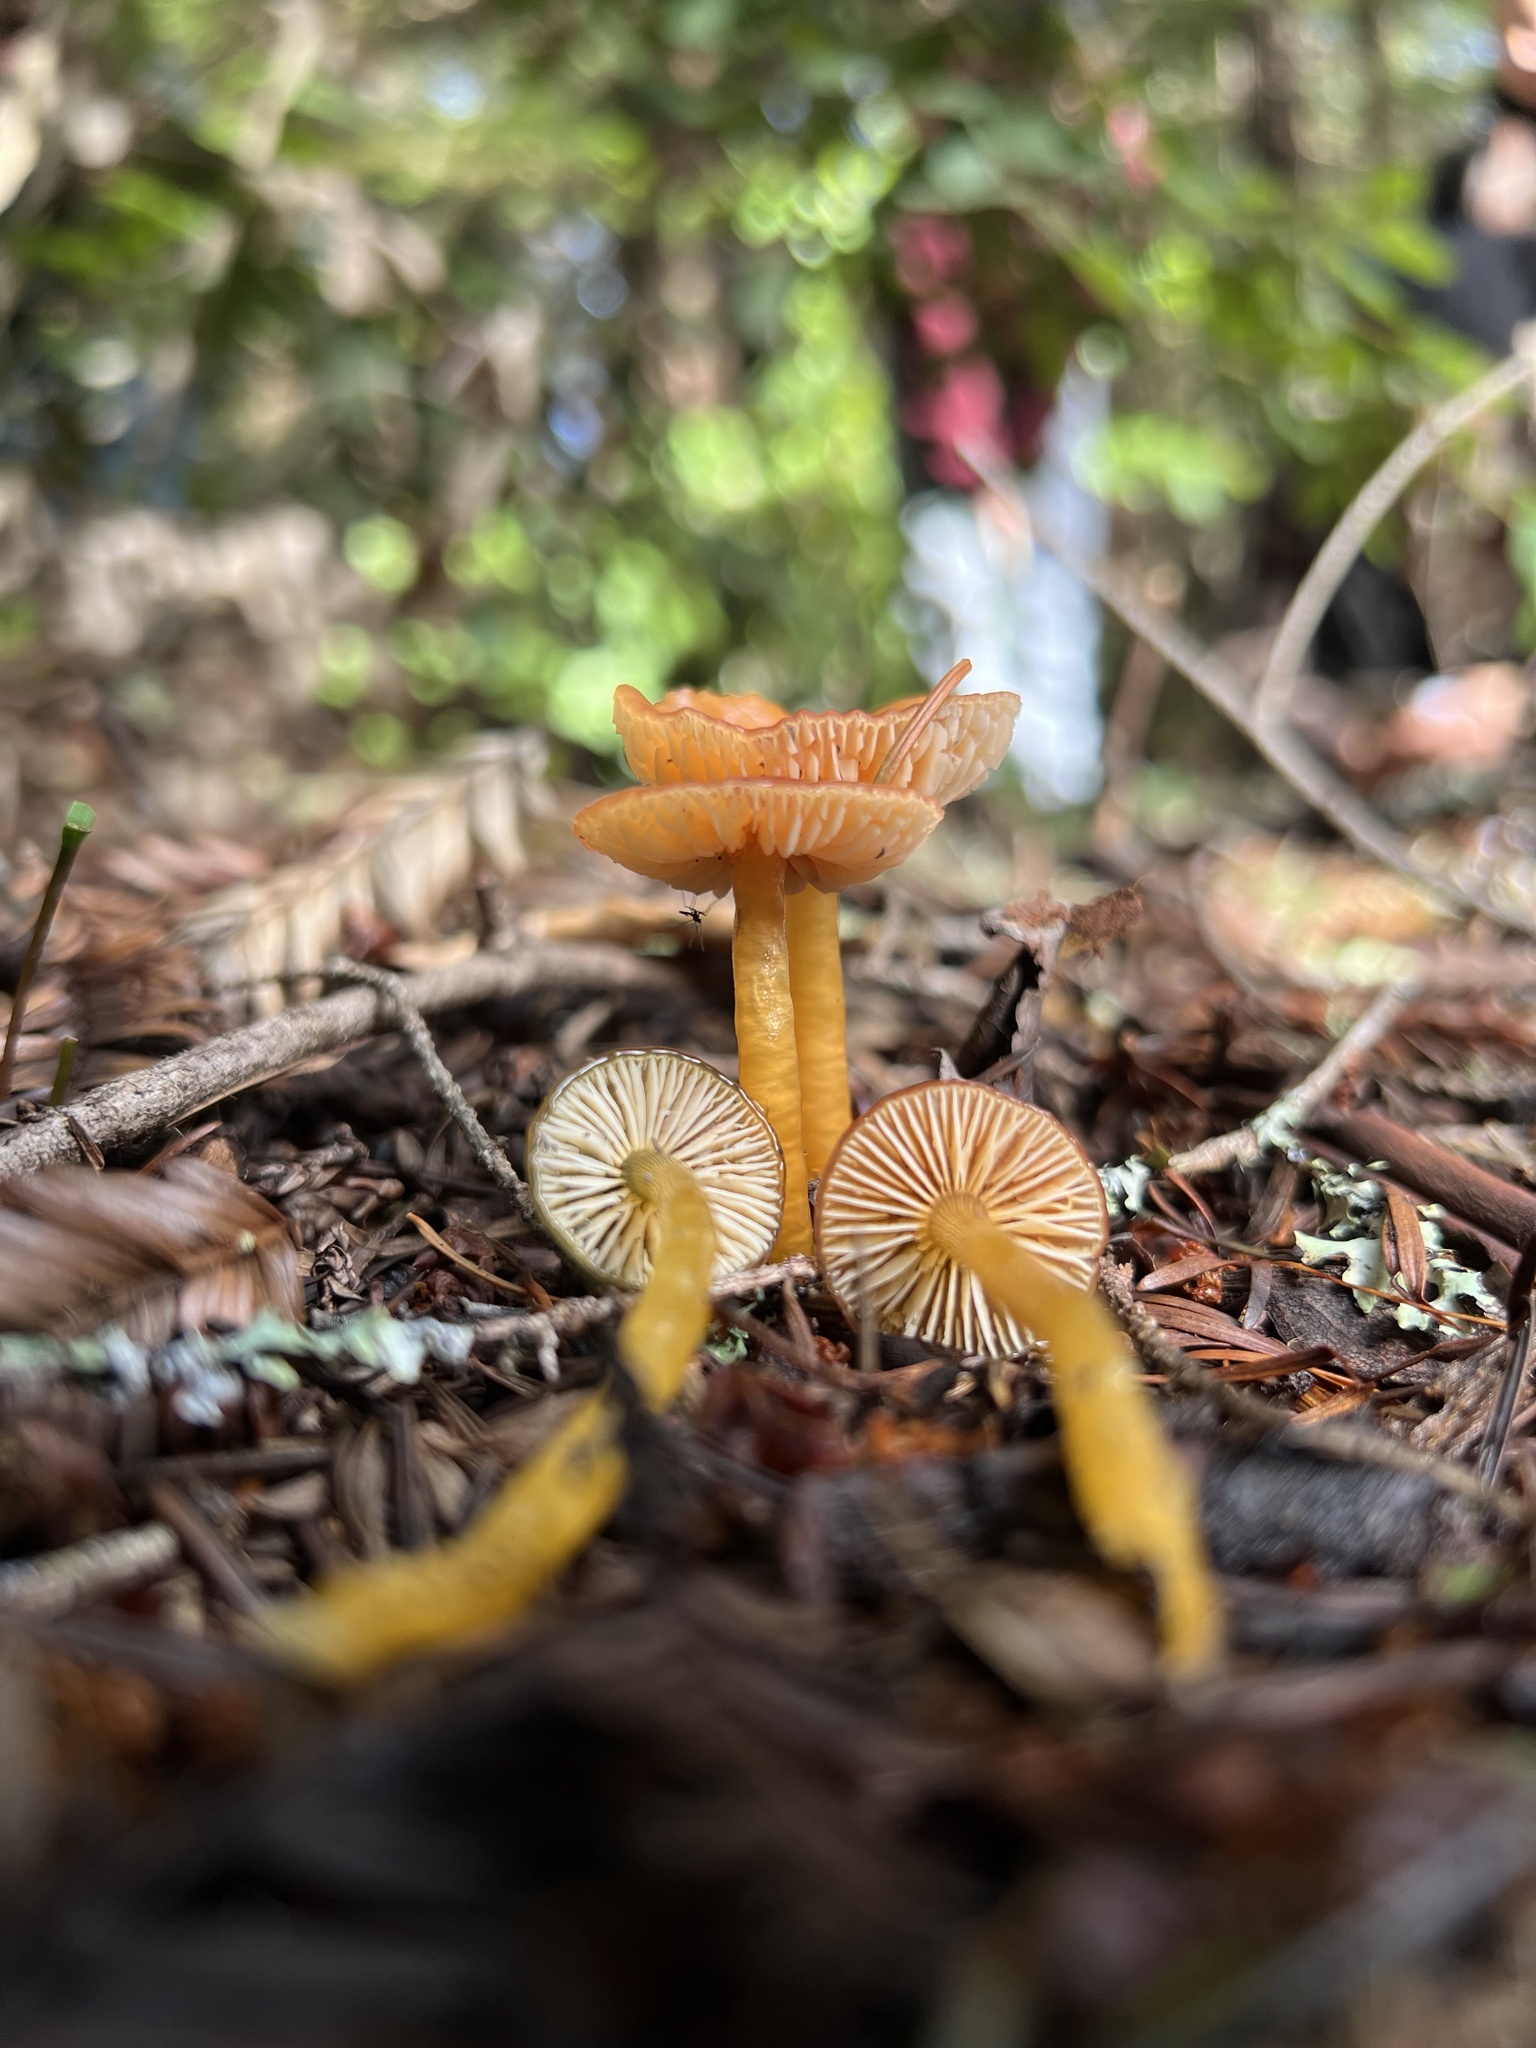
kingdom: Fungi
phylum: Basidiomycota
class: Agaricomycetes
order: Agaricales
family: Hygrophoraceae
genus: Gliophorus
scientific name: Gliophorus psittacinus
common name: Parrot wax-cap
